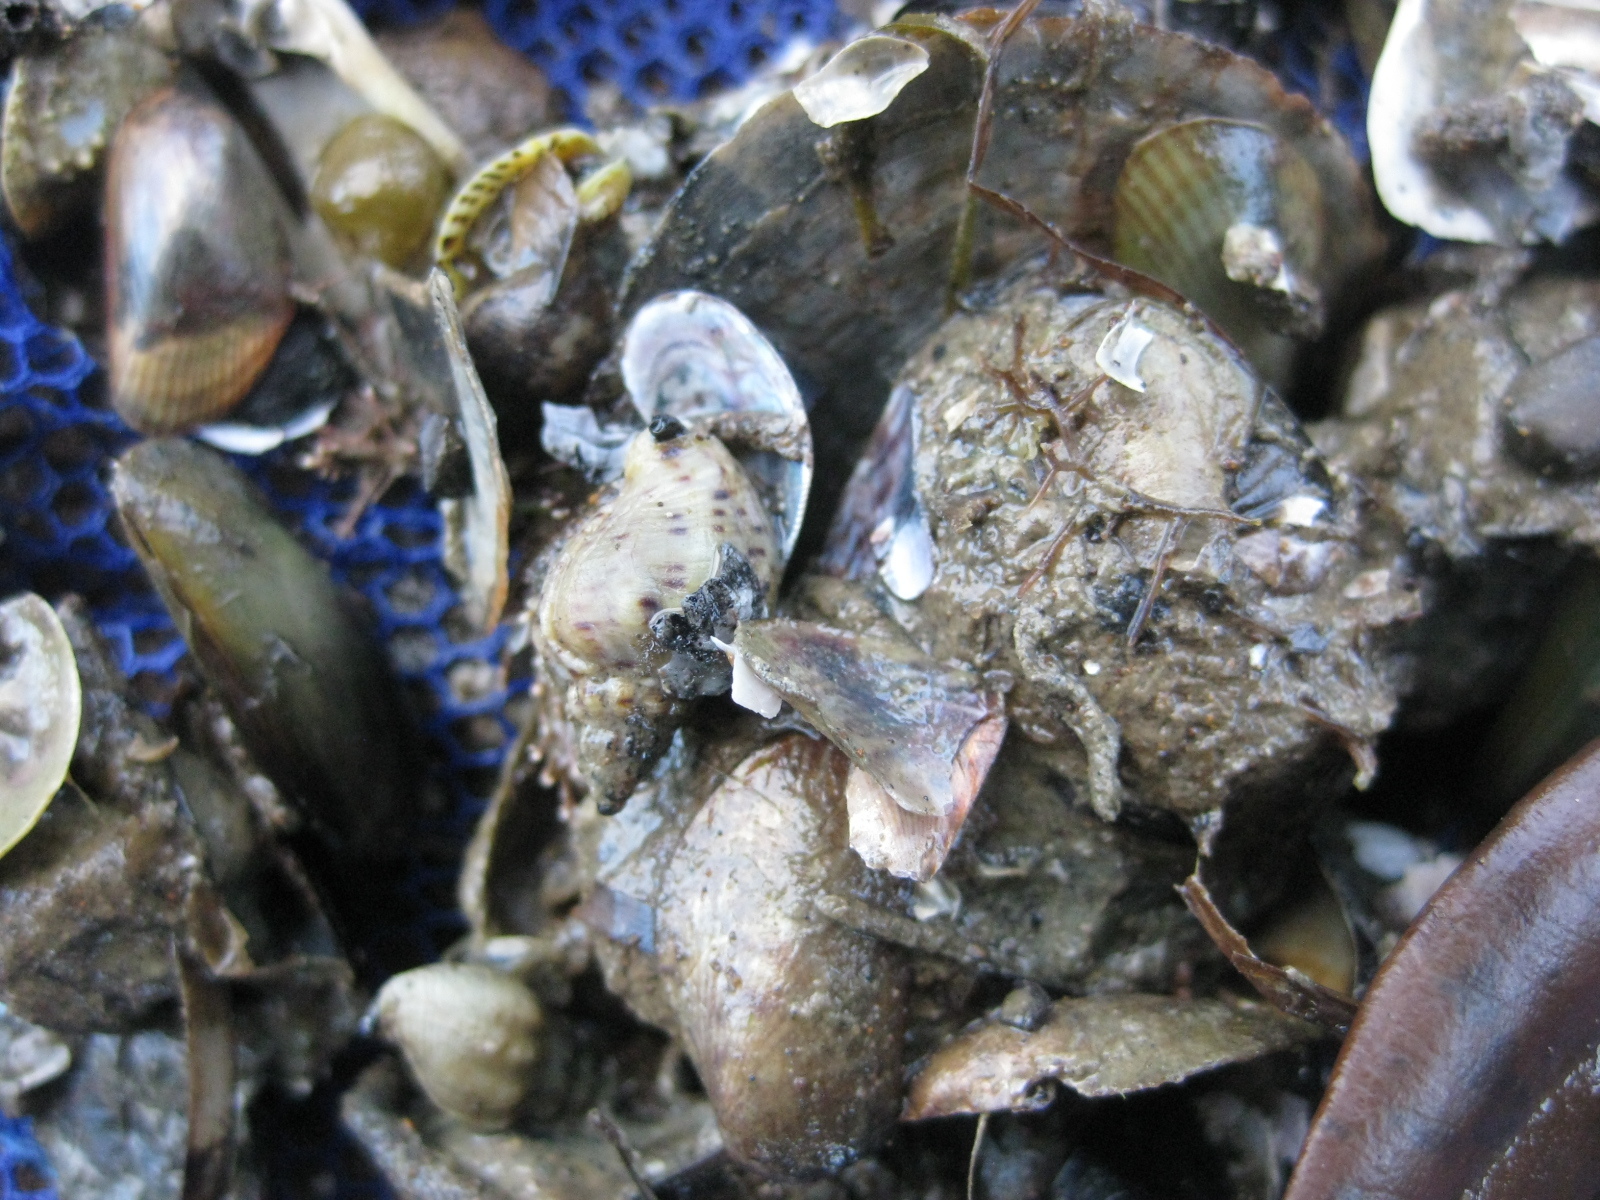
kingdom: Animalia
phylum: Mollusca
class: Gastropoda
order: Neogastropoda
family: Cominellidae
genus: Cominella
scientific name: Cominella adspersa
